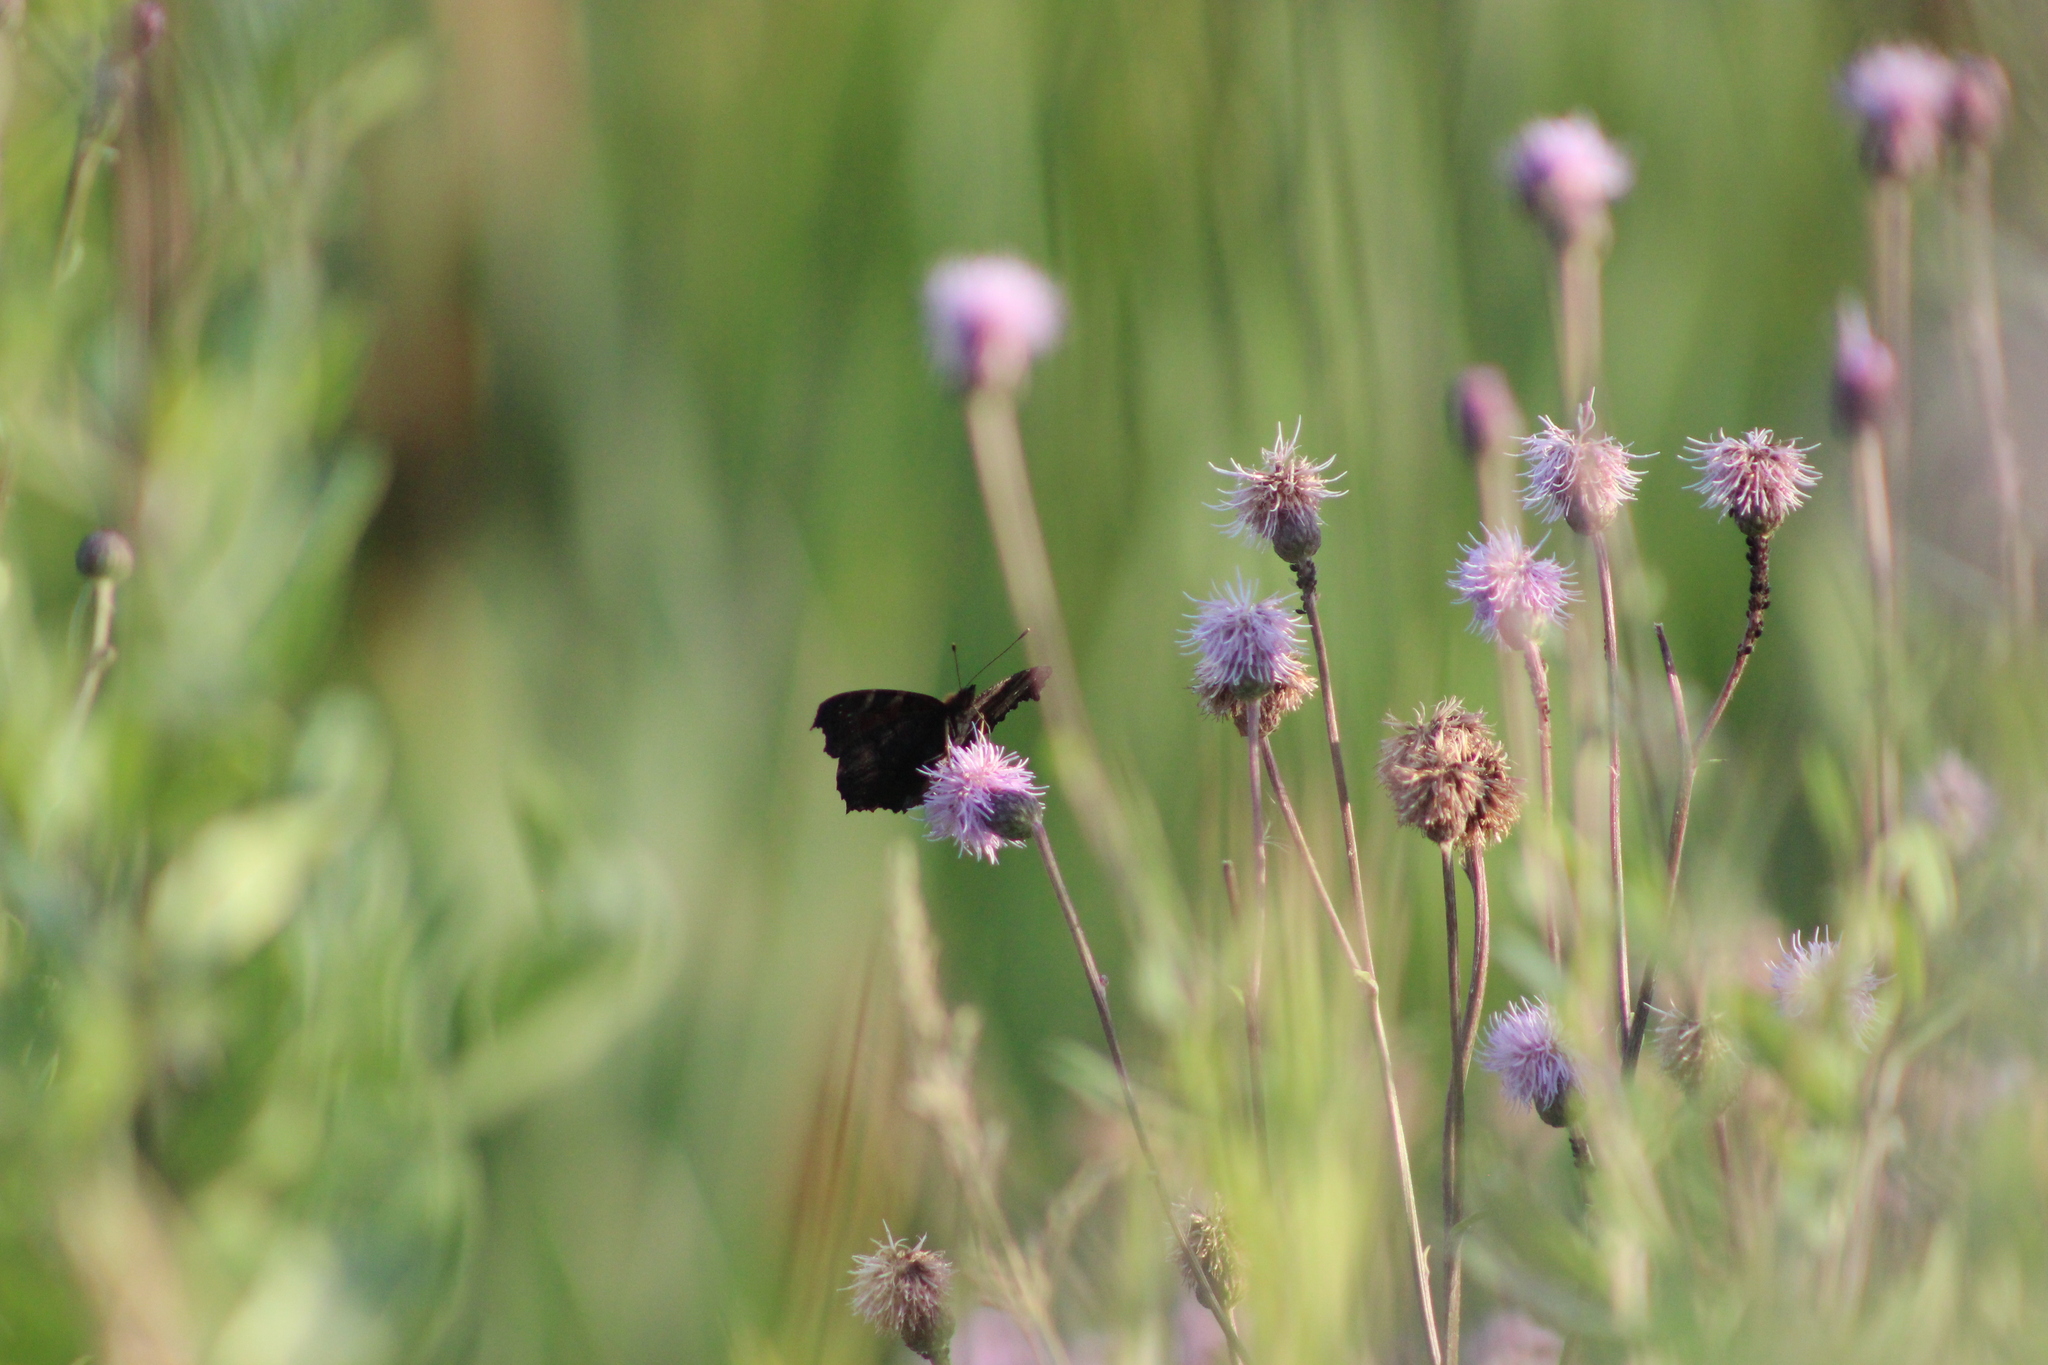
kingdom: Animalia
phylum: Arthropoda
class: Insecta
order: Lepidoptera
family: Nymphalidae
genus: Aglais
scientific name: Aglais io
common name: Peacock
